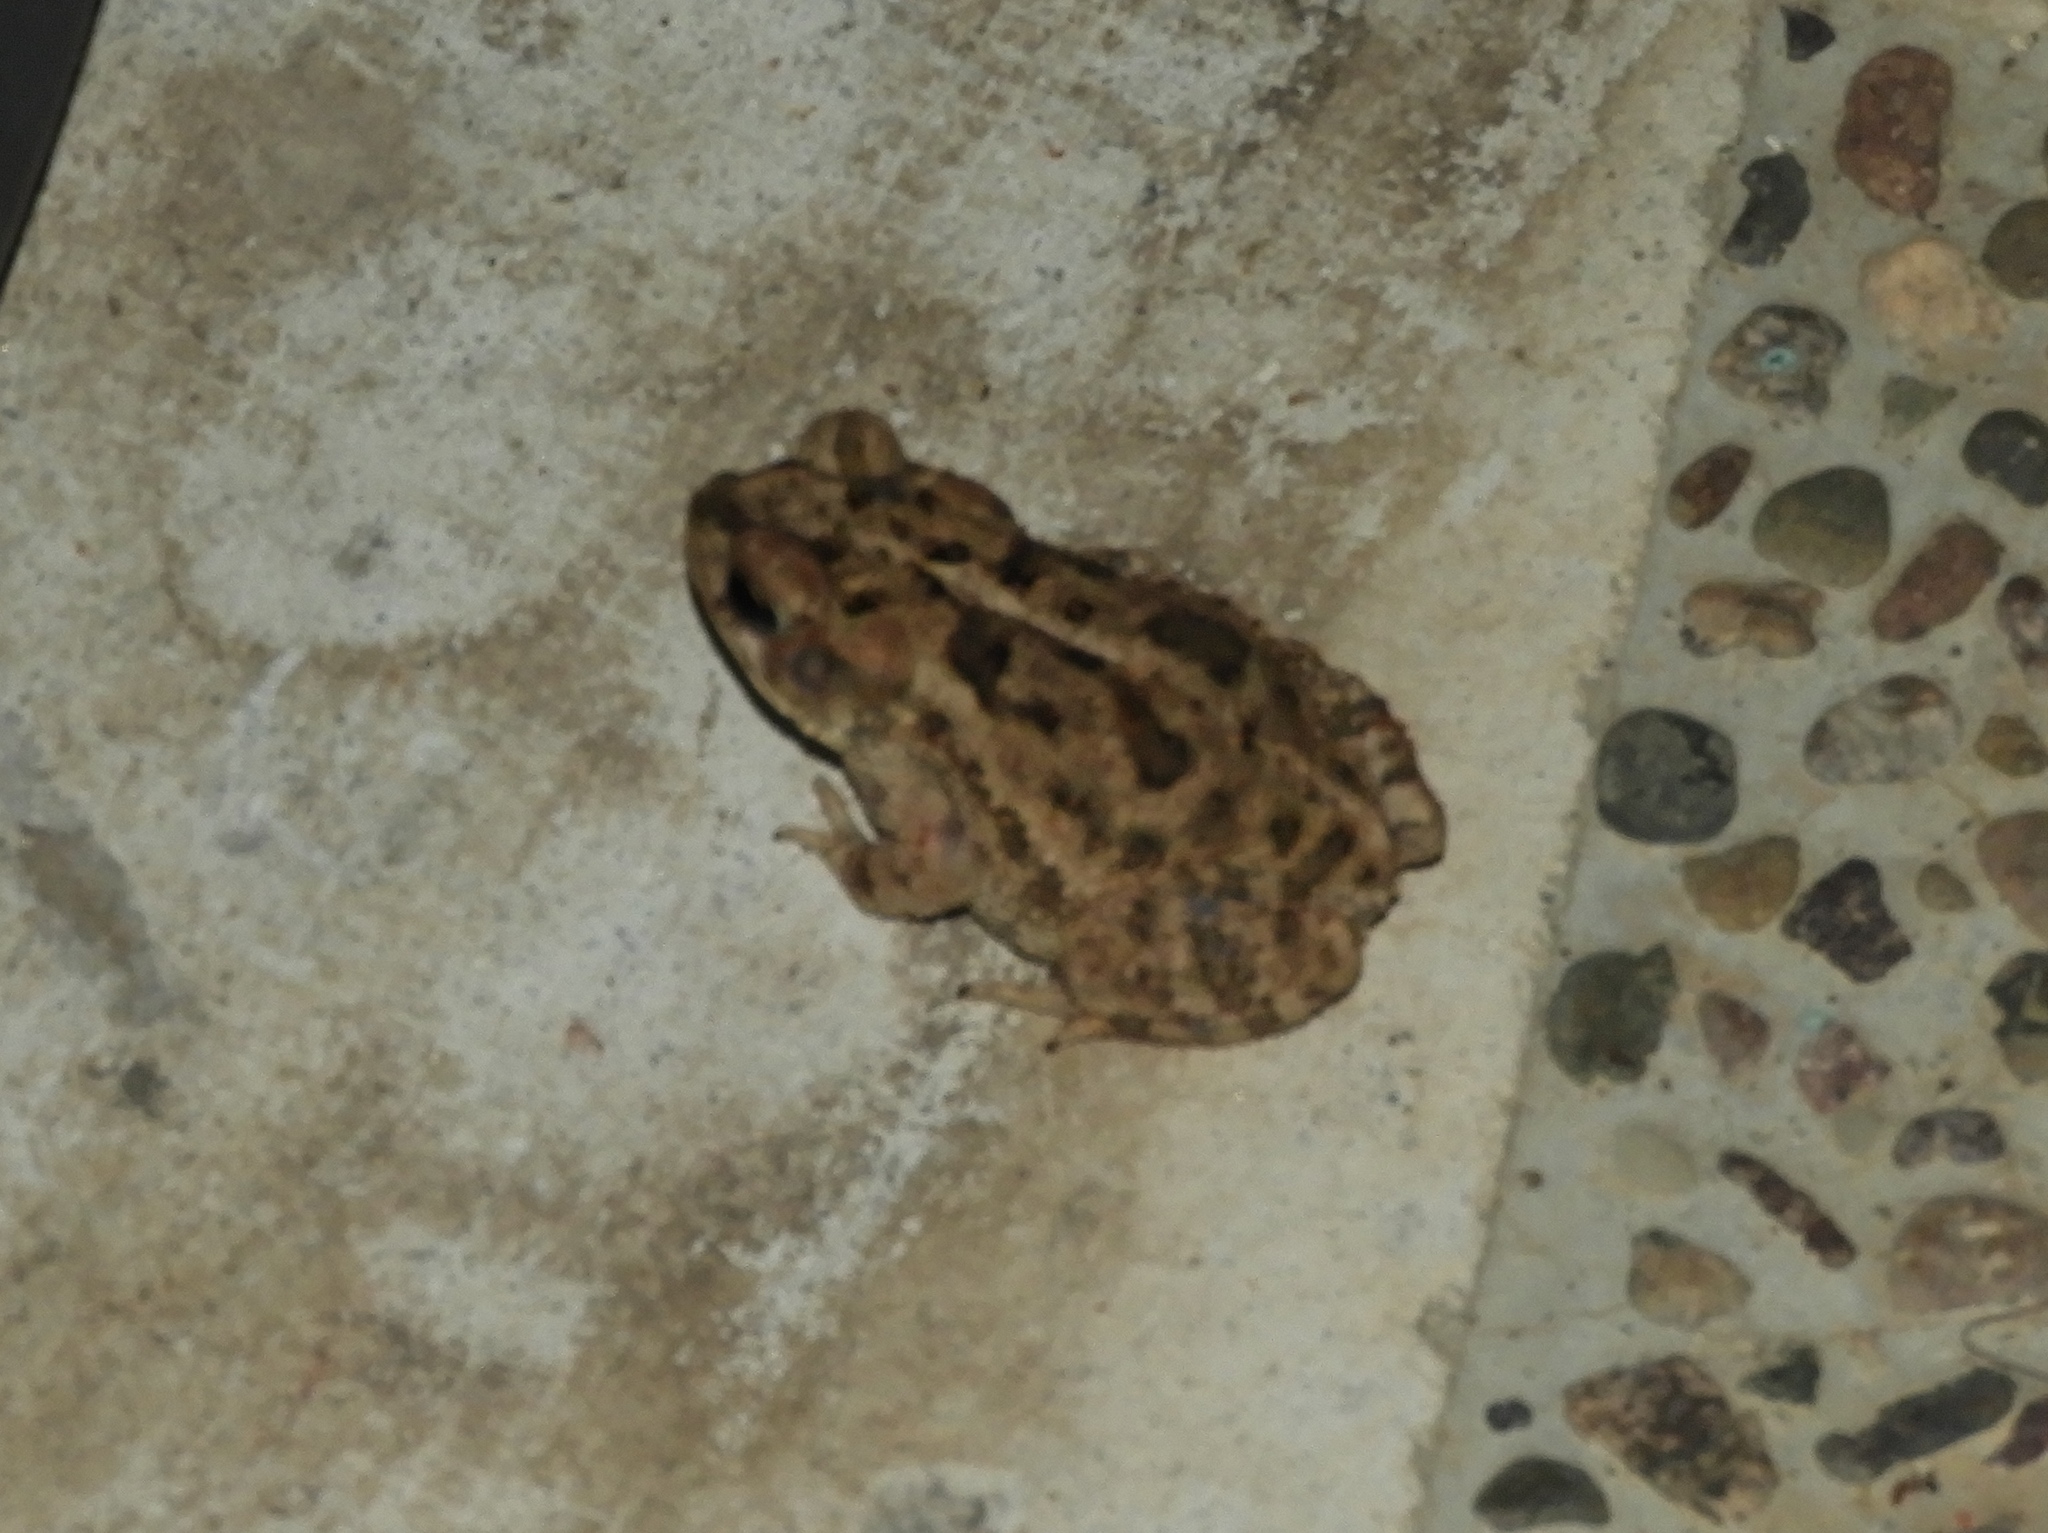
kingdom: Animalia
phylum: Chordata
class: Amphibia
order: Anura
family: Bufonidae
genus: Incilius
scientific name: Incilius mazatlanensis
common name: Sinaloa toad
